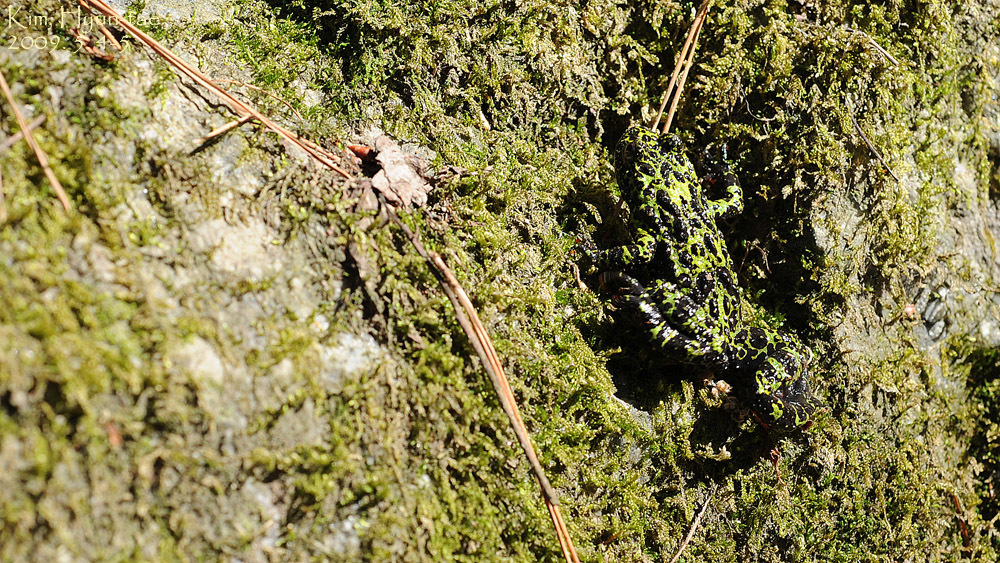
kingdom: Animalia
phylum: Chordata
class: Amphibia
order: Anura
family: Bombinatoridae
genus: Bombina
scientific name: Bombina orientalis
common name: Oriental firebelly toad
